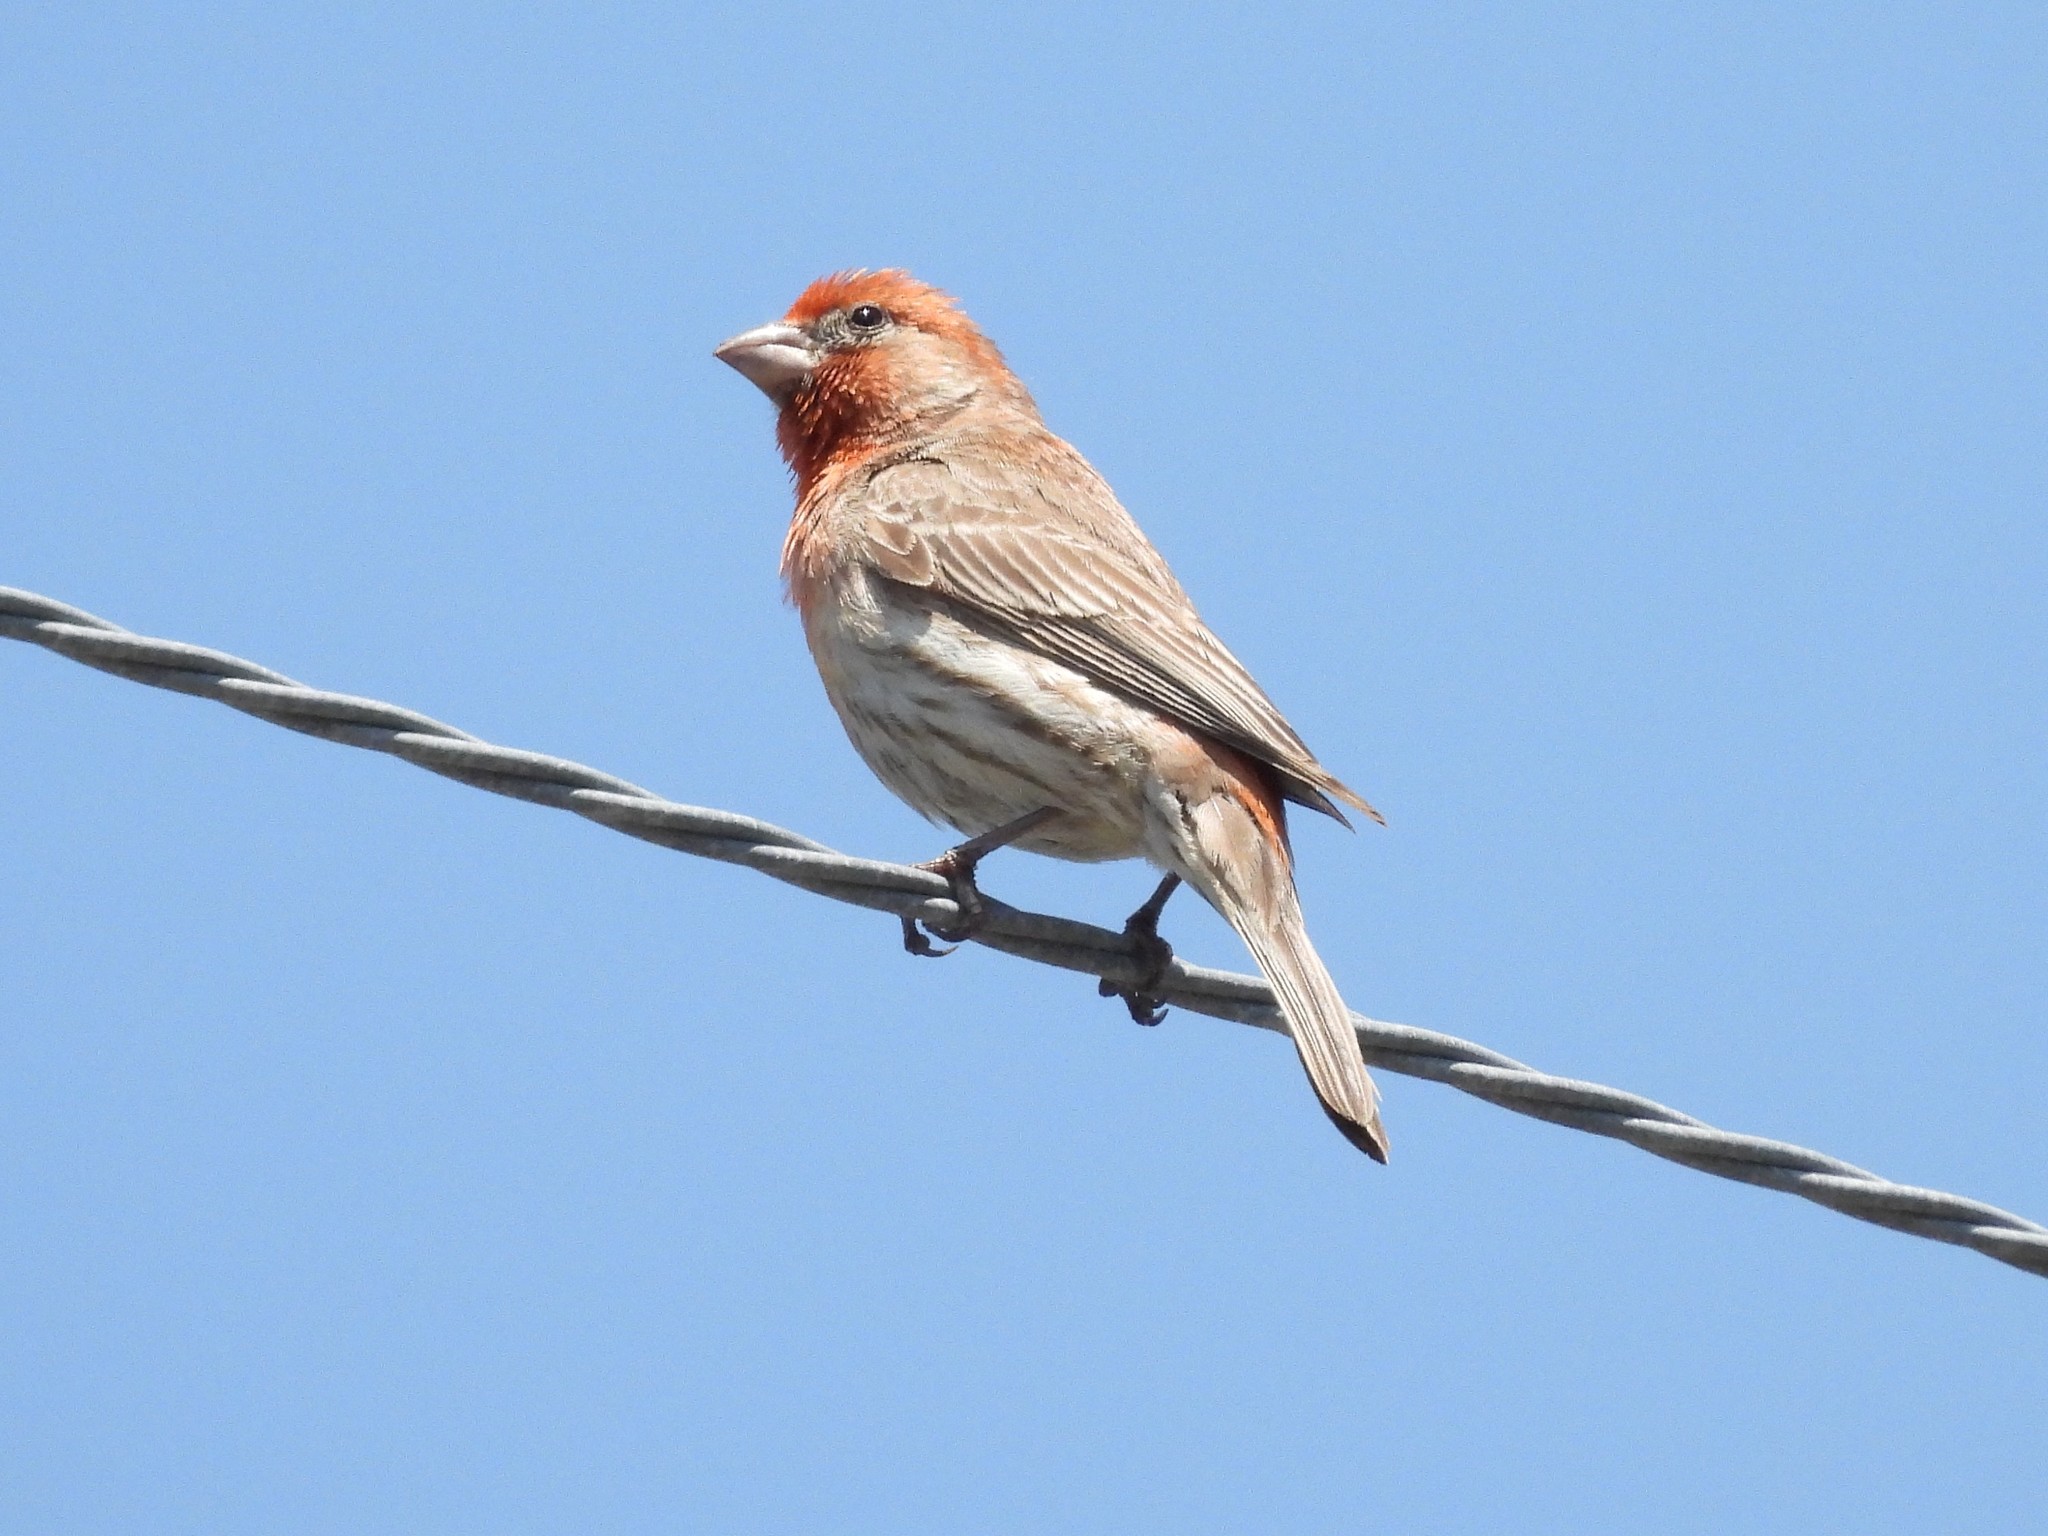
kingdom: Animalia
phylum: Chordata
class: Aves
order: Passeriformes
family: Fringillidae
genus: Haemorhous
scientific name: Haemorhous mexicanus
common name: House finch
